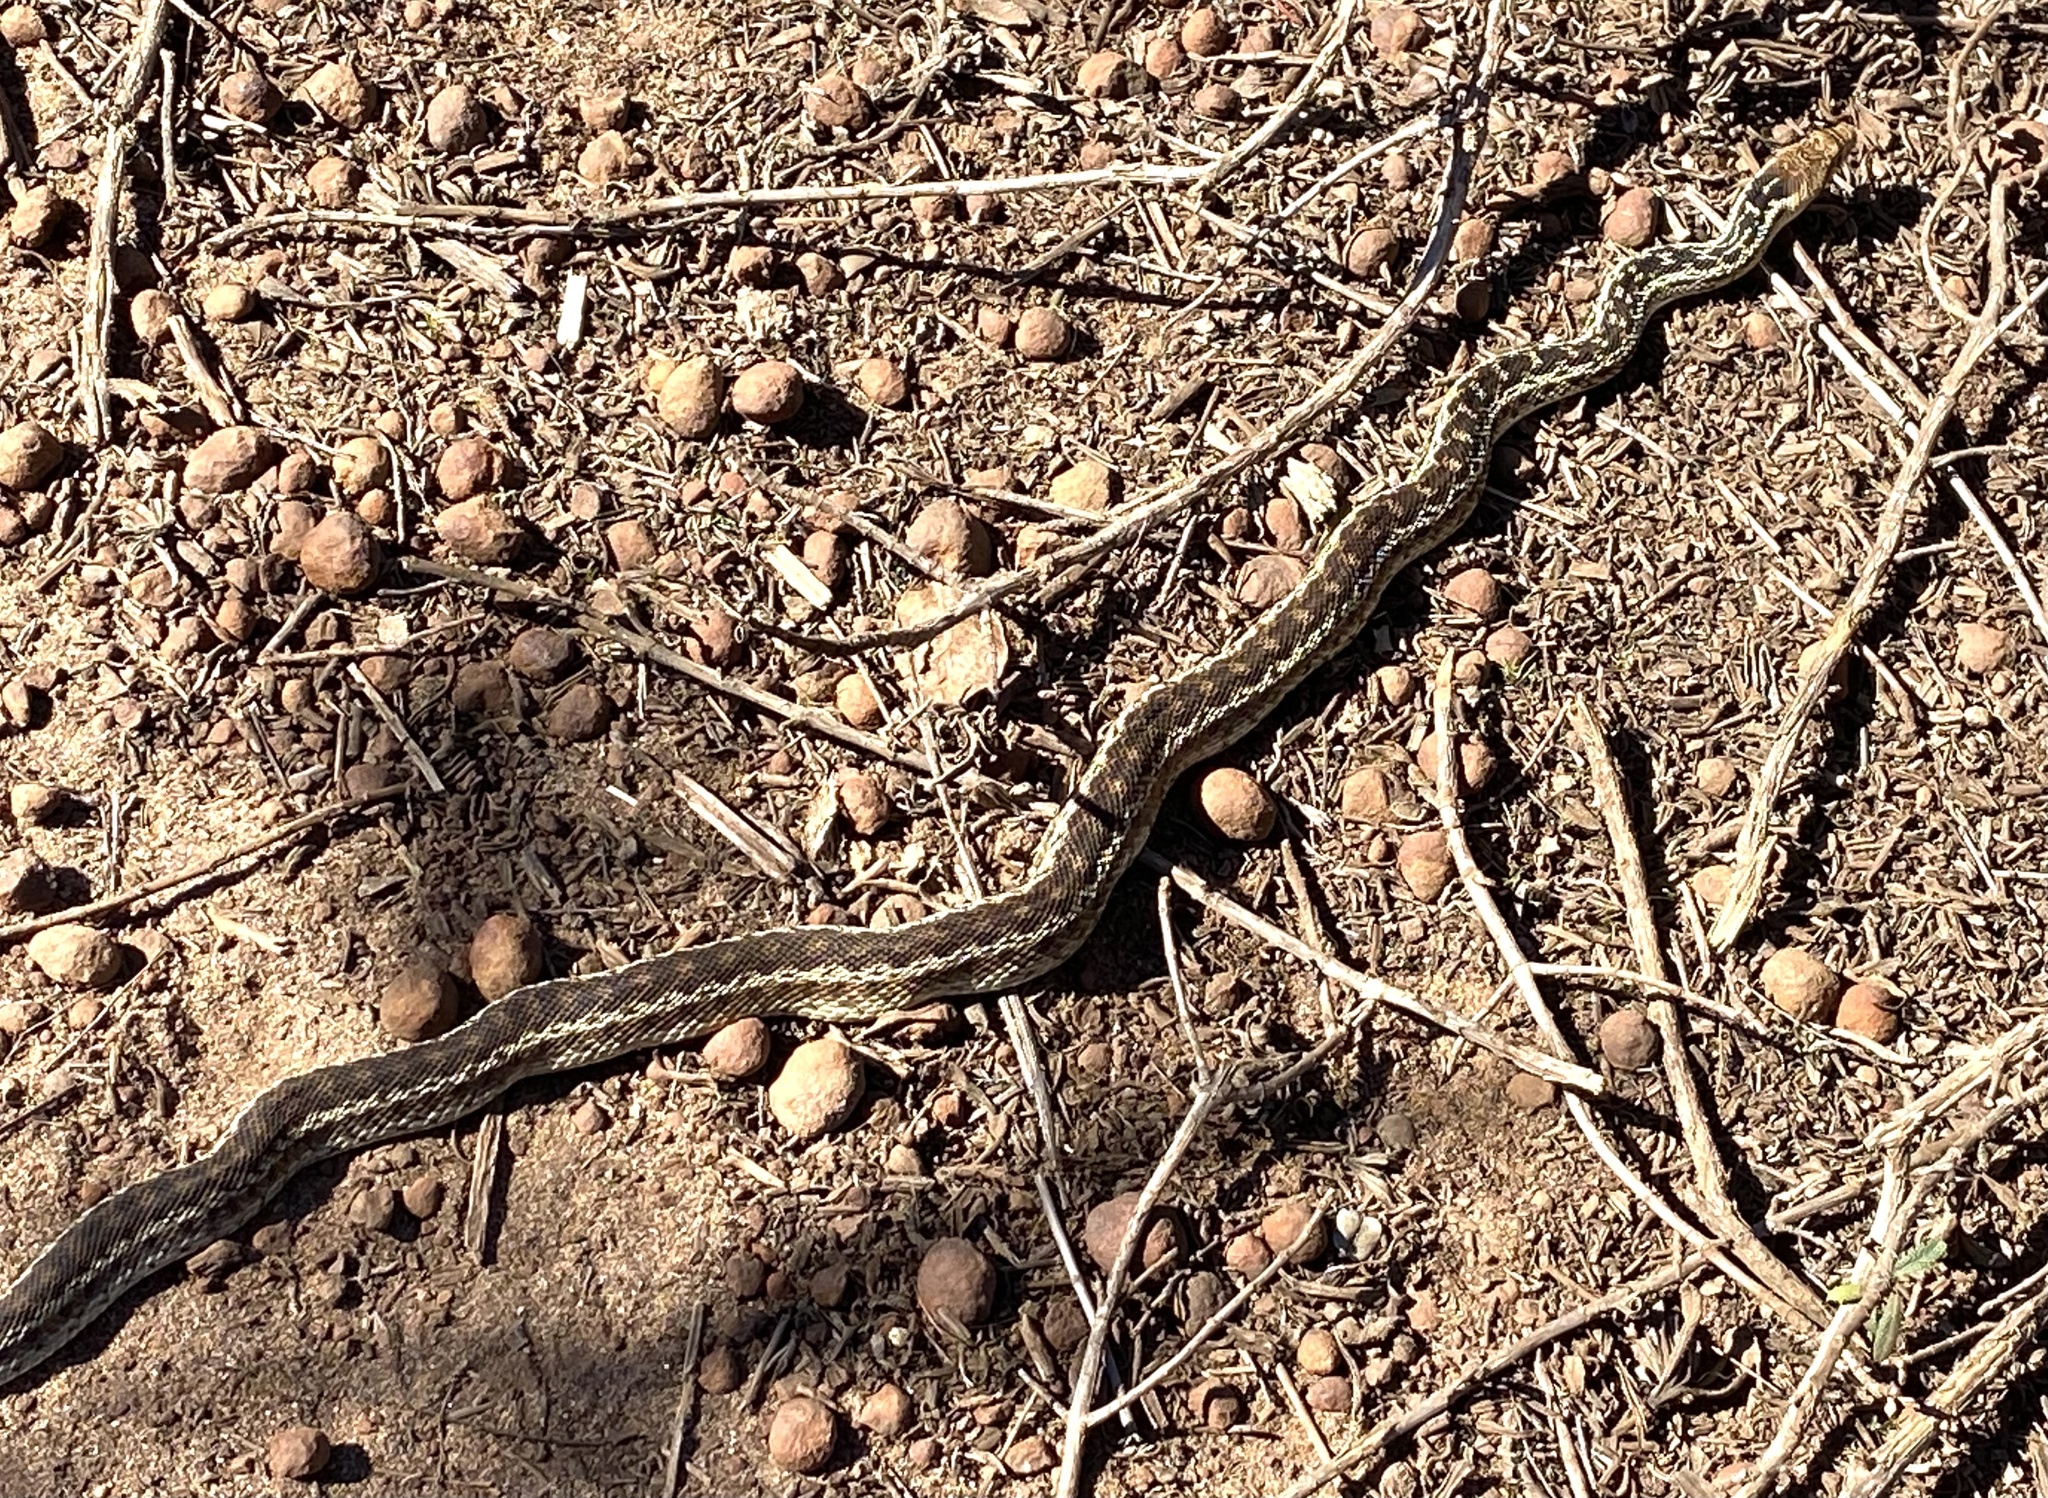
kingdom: Animalia
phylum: Chordata
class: Squamata
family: Colubridae
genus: Pituophis
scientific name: Pituophis catenifer
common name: Gopher snake
